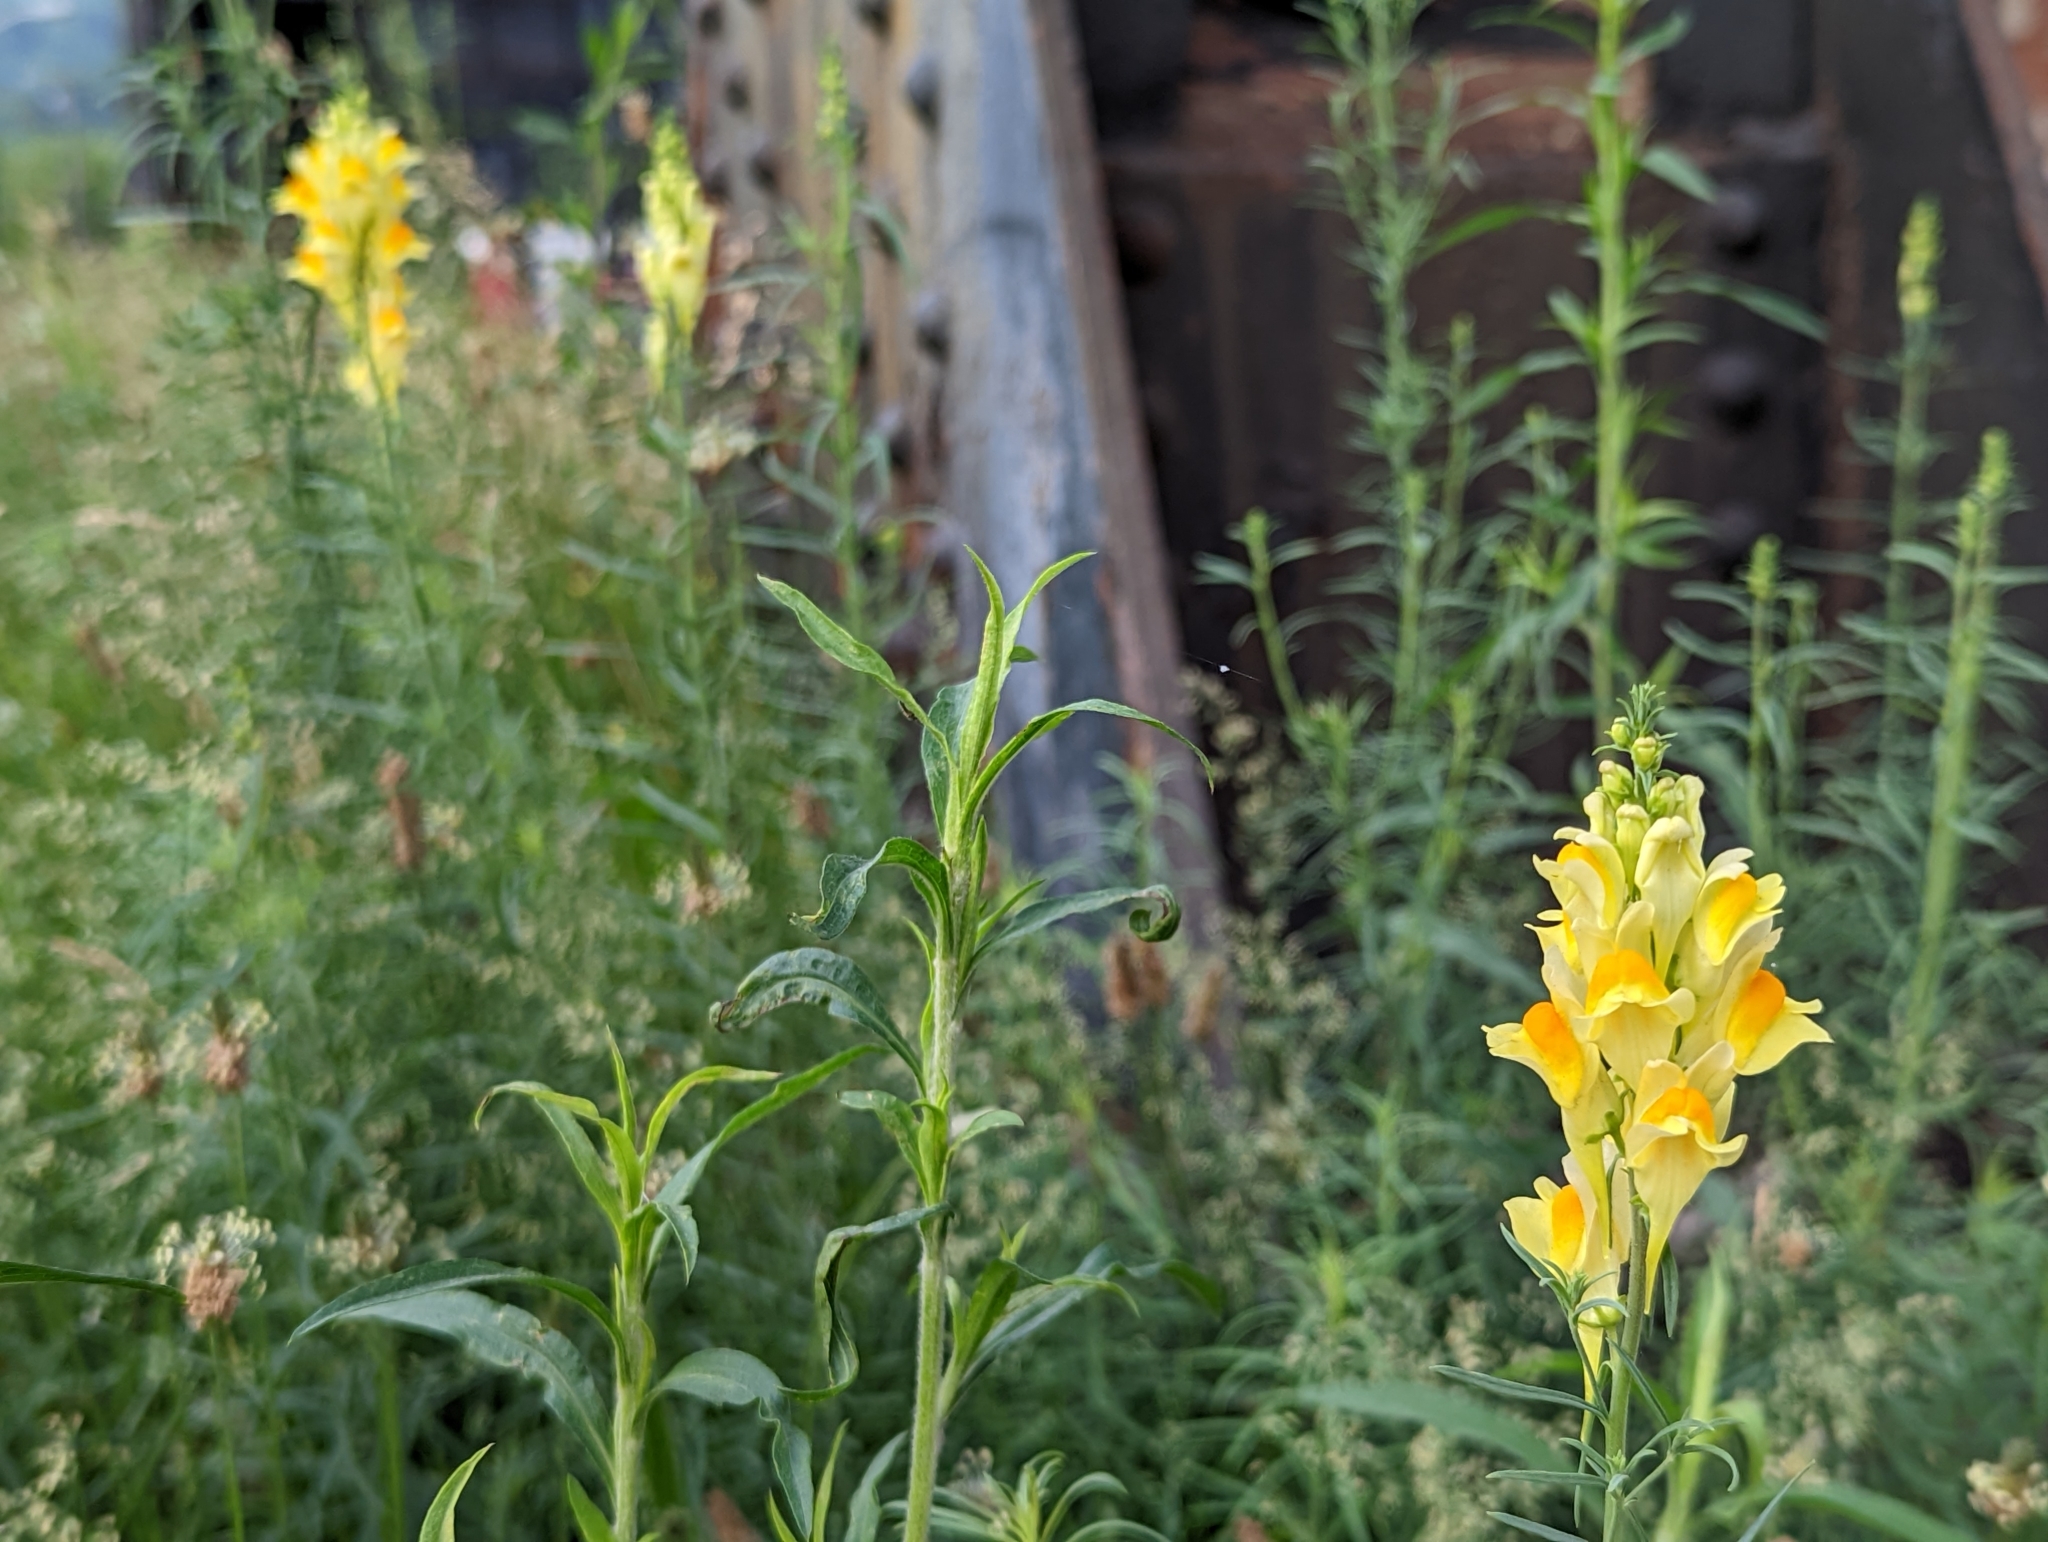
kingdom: Plantae
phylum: Tracheophyta
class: Magnoliopsida
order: Lamiales
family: Plantaginaceae
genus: Linaria
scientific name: Linaria vulgaris
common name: Butter and eggs
